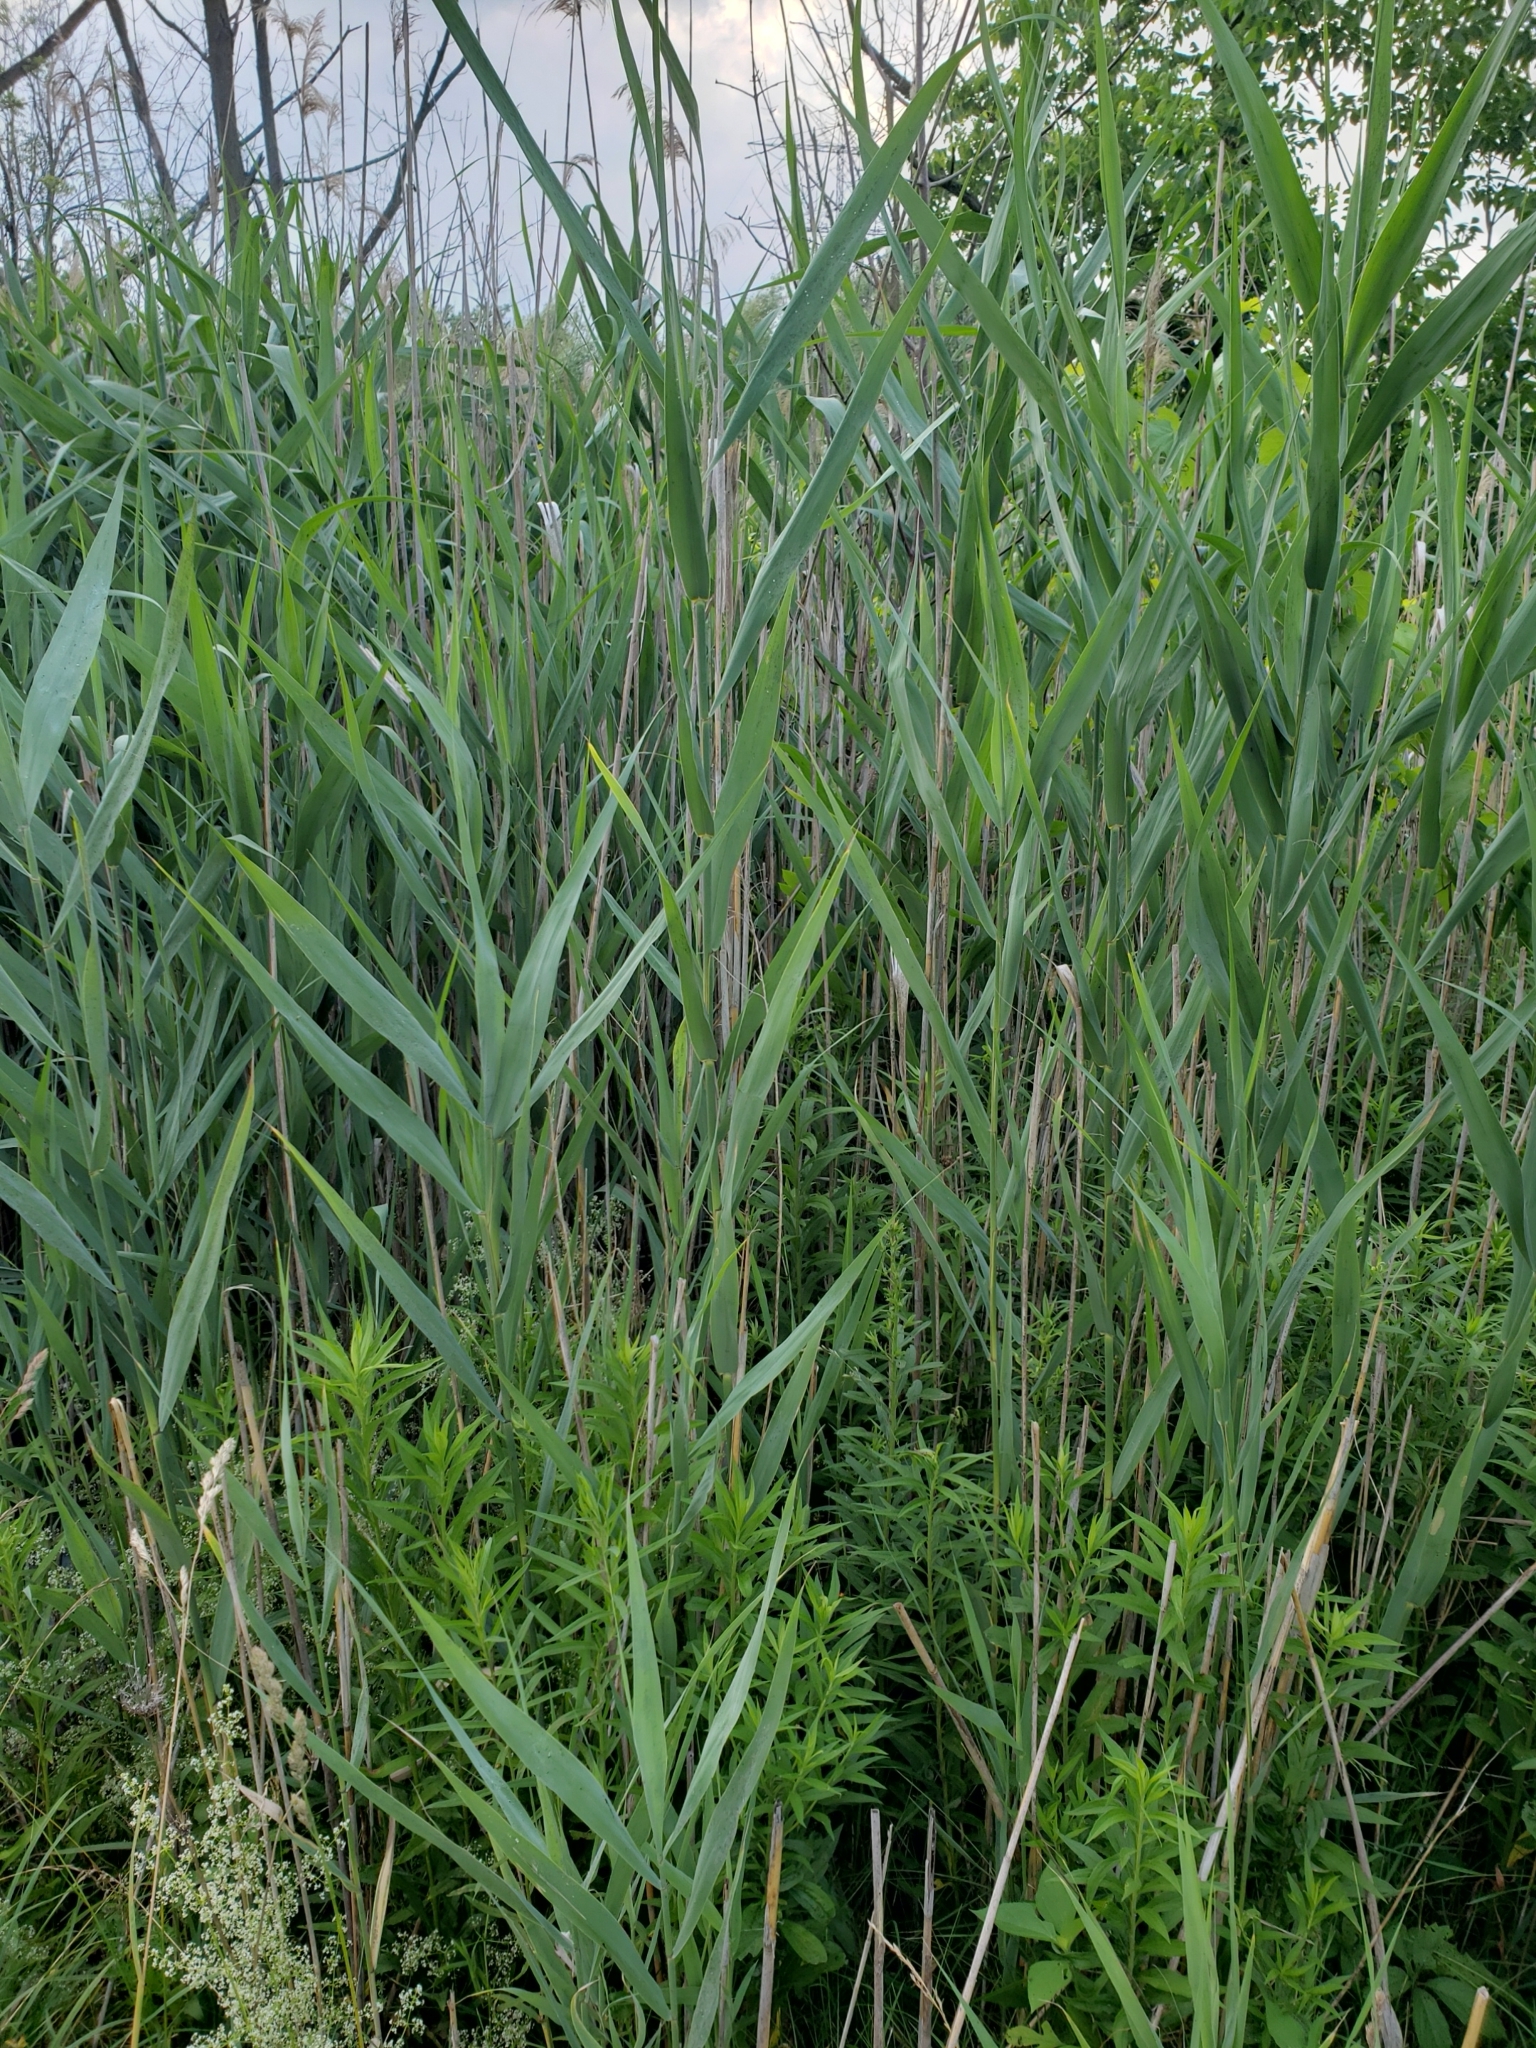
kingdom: Plantae
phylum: Tracheophyta
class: Liliopsida
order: Poales
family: Poaceae
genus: Phragmites
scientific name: Phragmites australis
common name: Common reed
